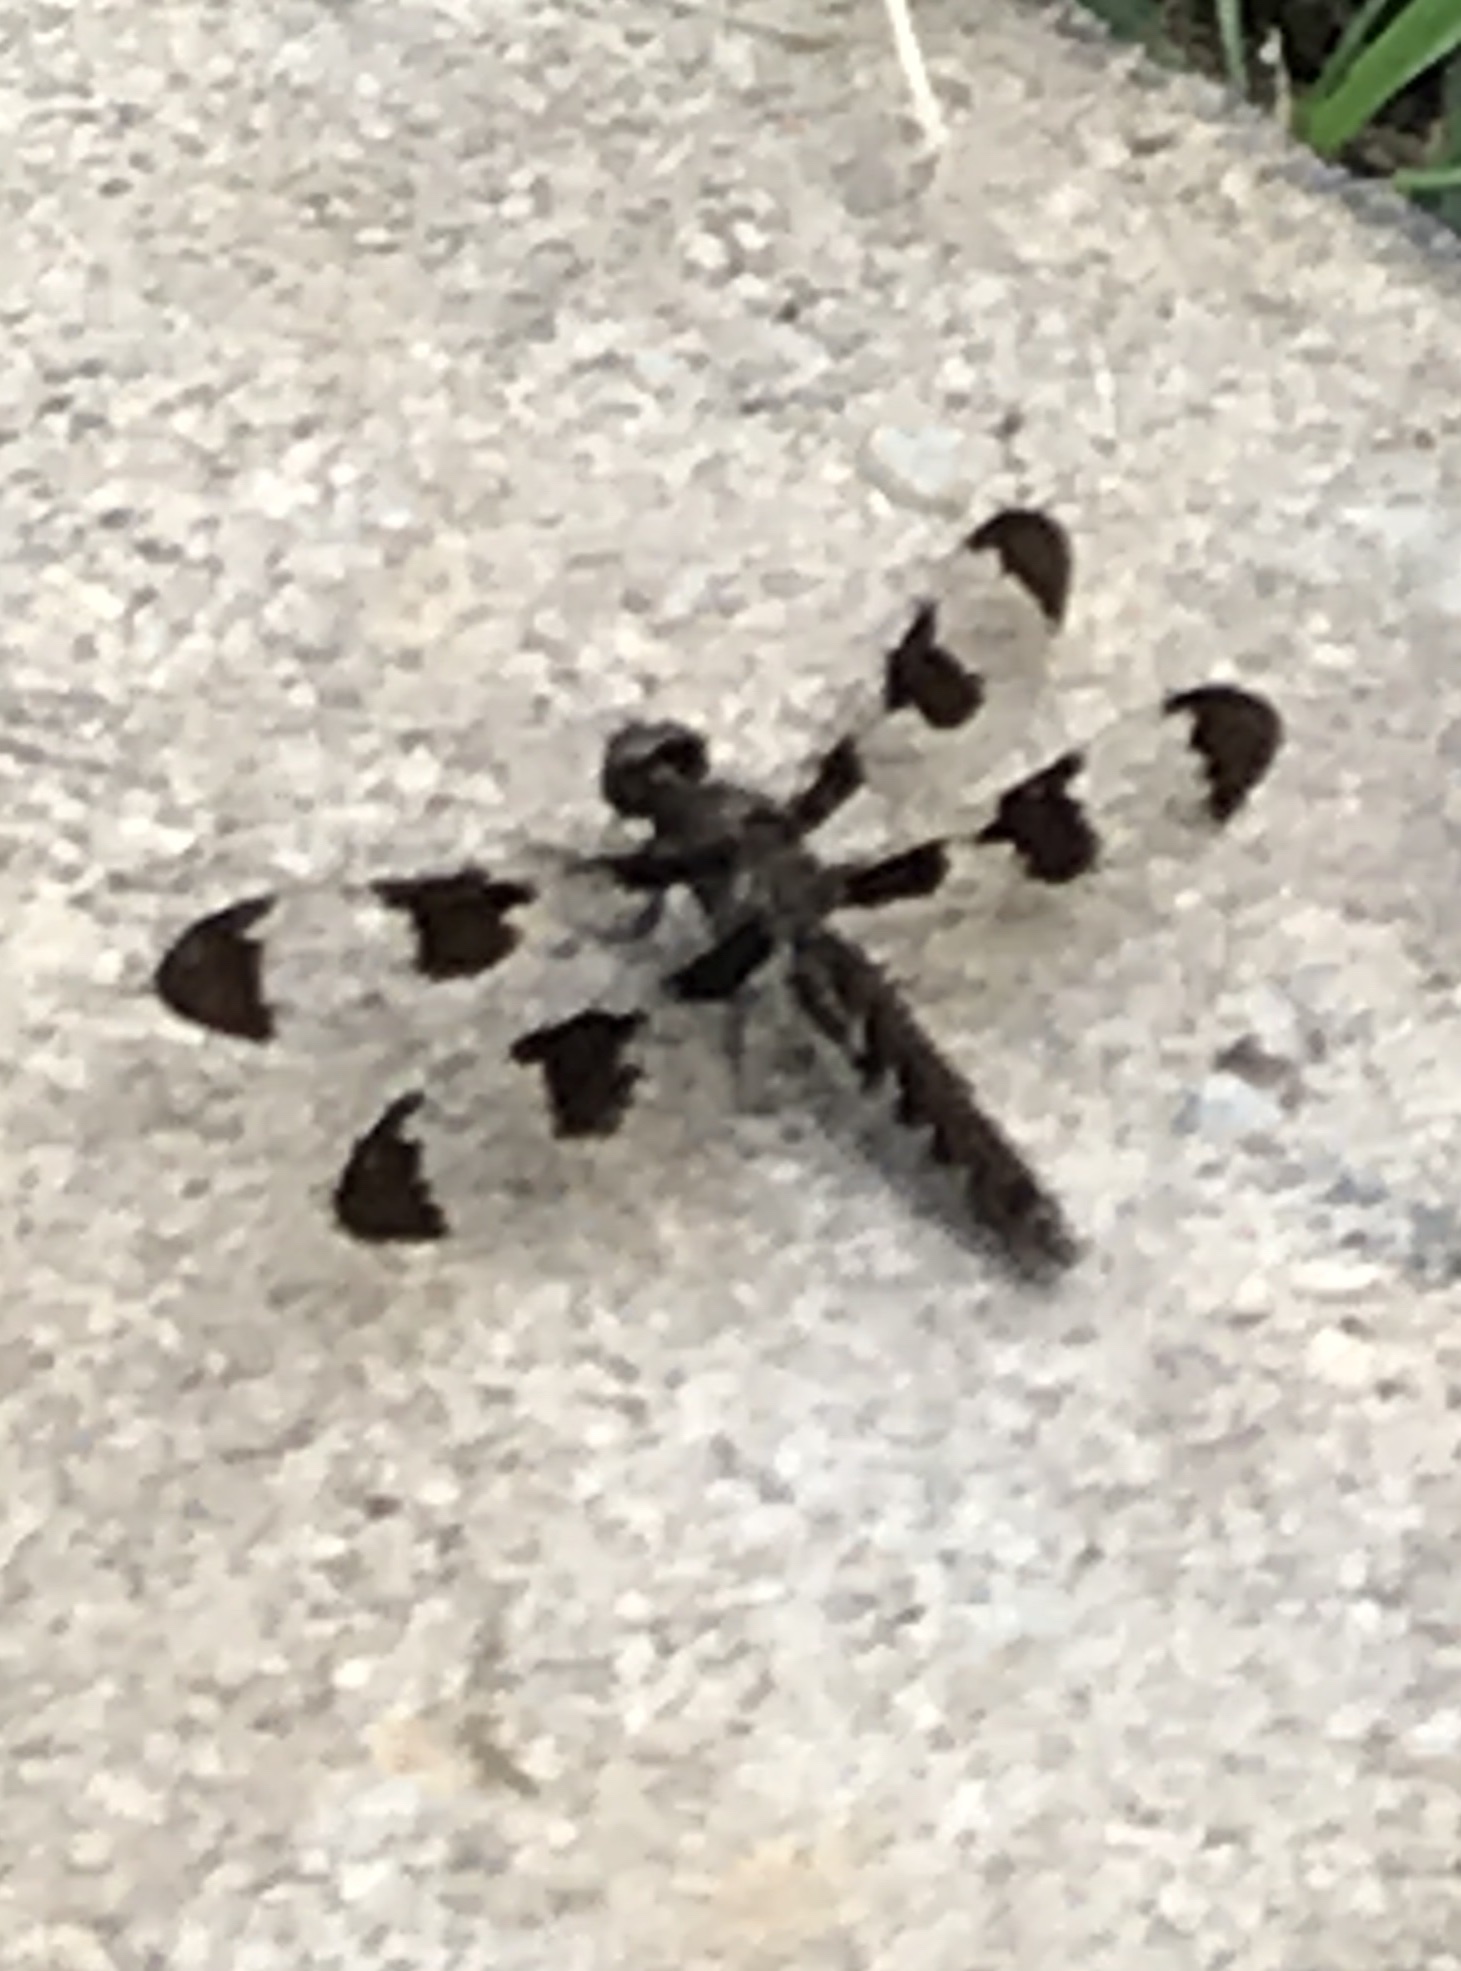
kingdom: Animalia
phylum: Arthropoda
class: Insecta
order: Odonata
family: Libellulidae
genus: Plathemis
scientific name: Plathemis lydia
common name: Common whitetail
